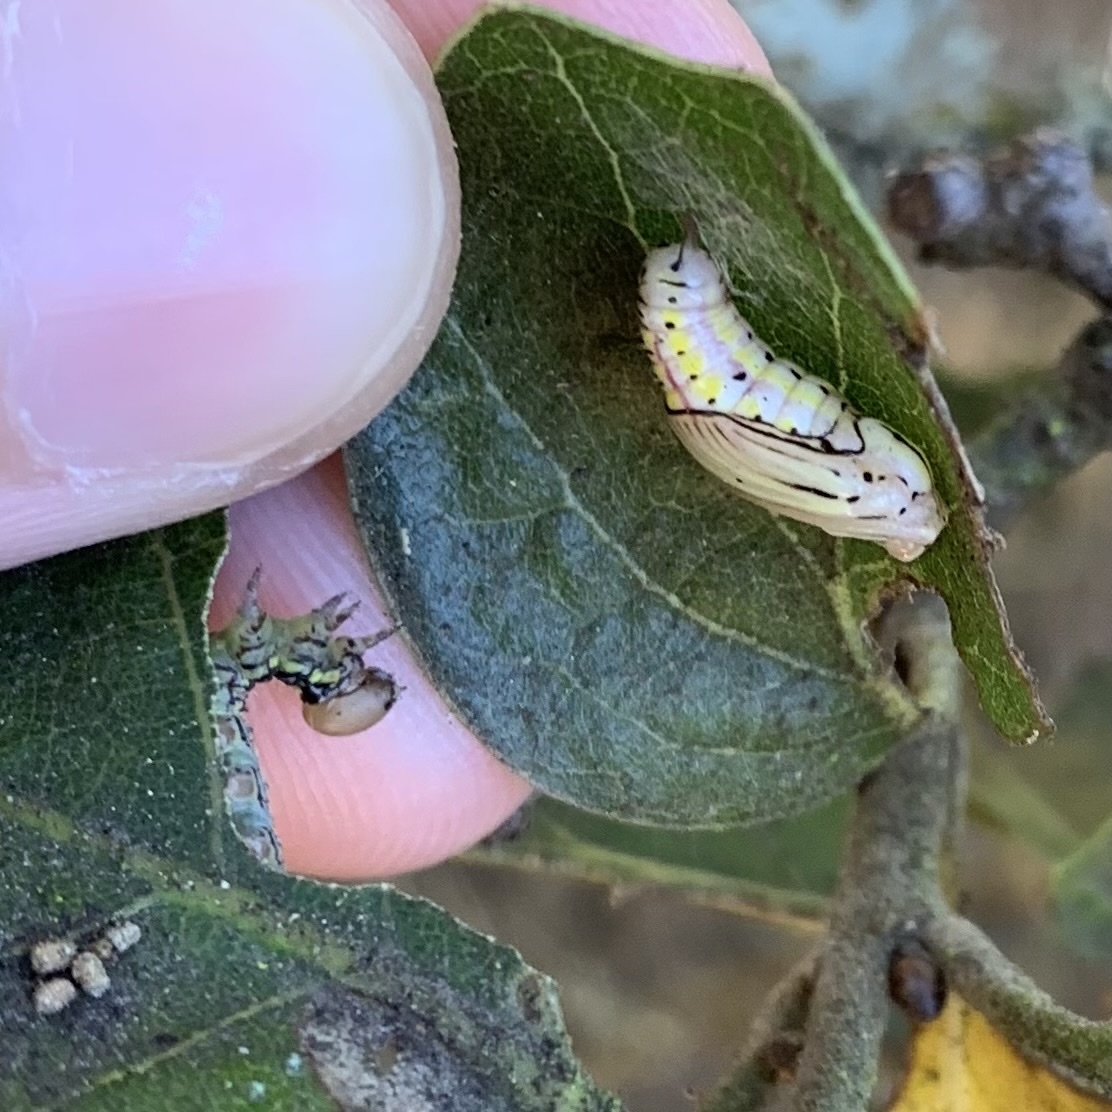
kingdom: Animalia
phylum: Arthropoda
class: Insecta
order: Lepidoptera
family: Notodontidae
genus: Phryganidia
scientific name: Phryganidia californica
